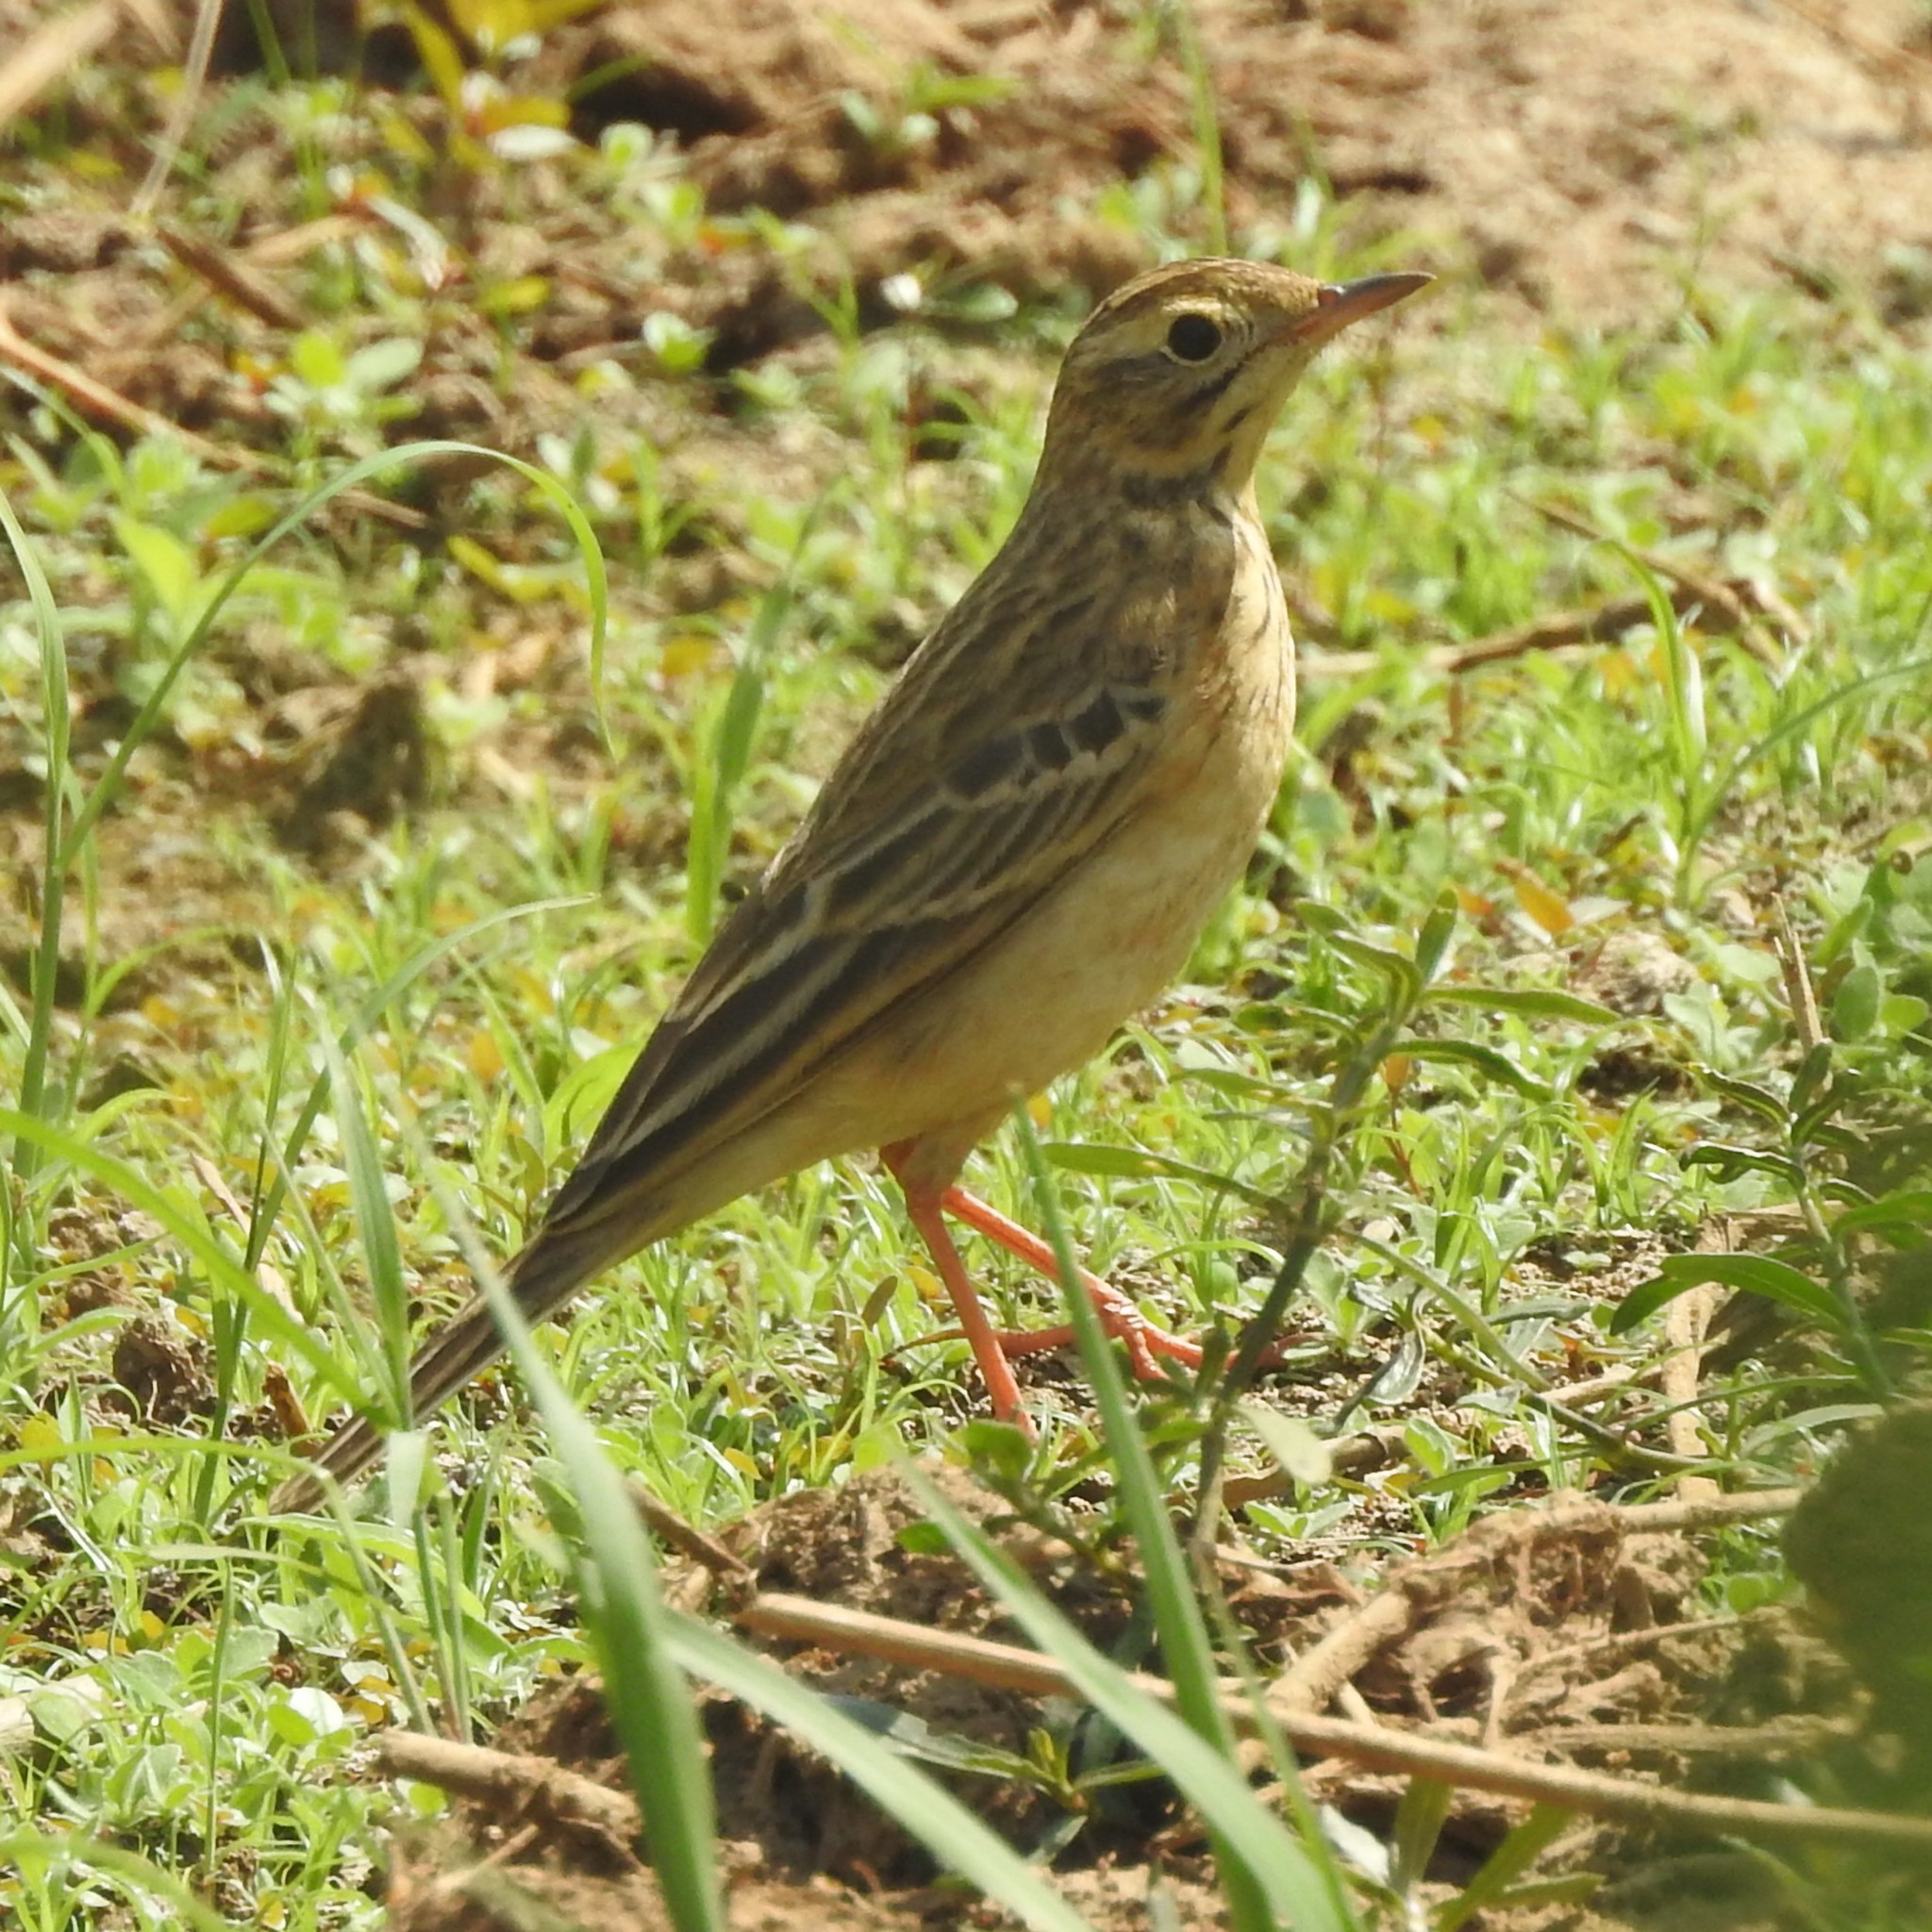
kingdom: Animalia
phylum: Chordata
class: Aves
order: Passeriformes
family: Motacillidae
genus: Anthus
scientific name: Anthus rufulus
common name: Paddyfield pipit
